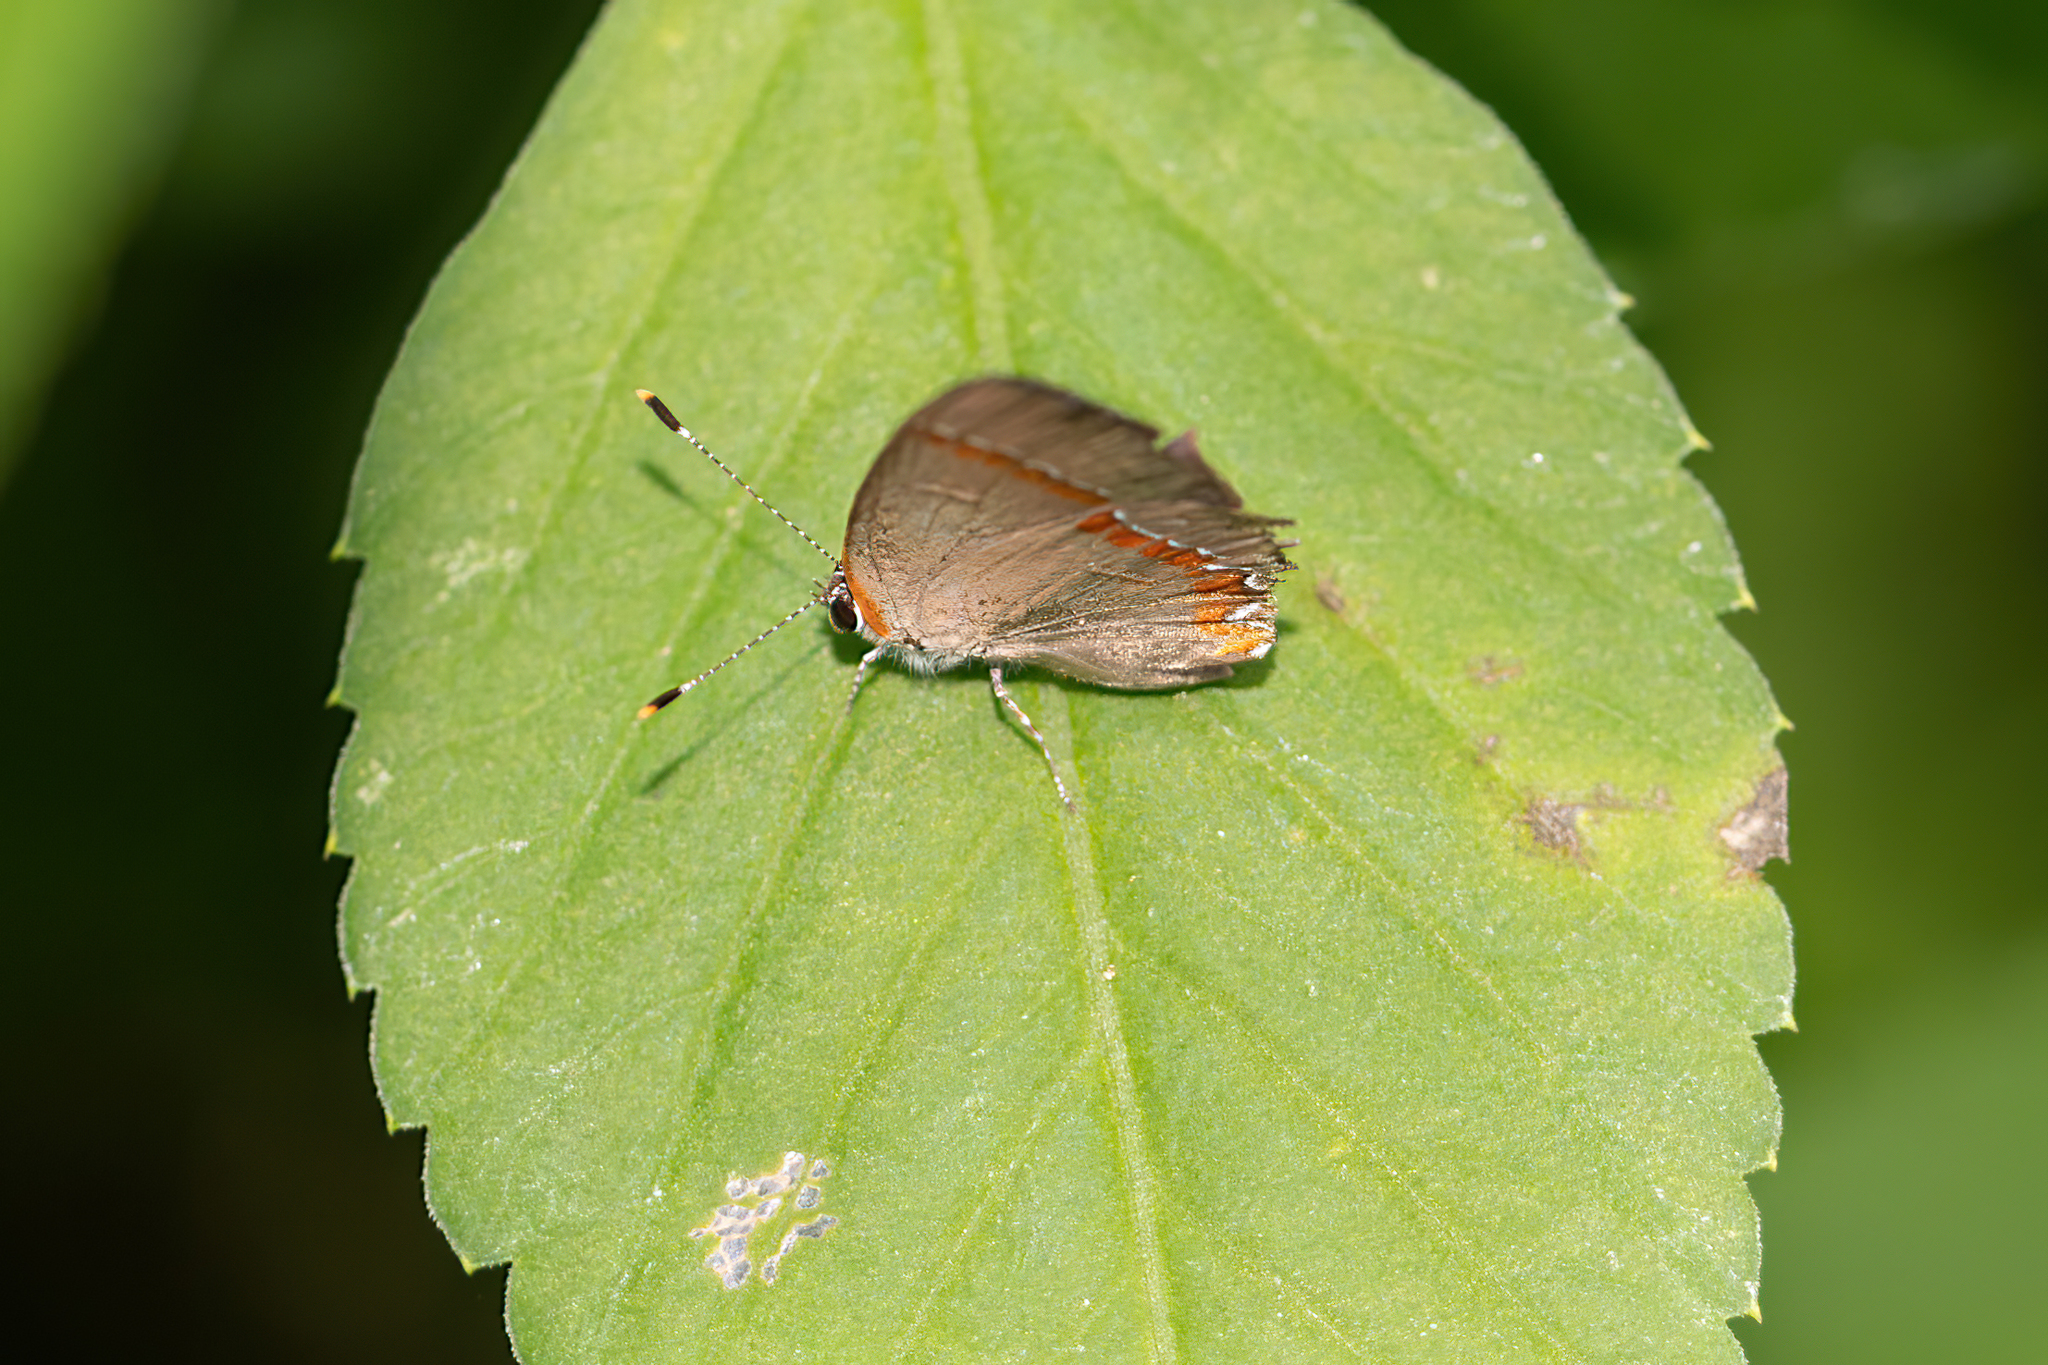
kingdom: Animalia
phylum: Arthropoda
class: Insecta
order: Lepidoptera
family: Lycaenidae
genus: Calycopis
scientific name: Calycopis cecrops
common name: Red-banded hairstreak
